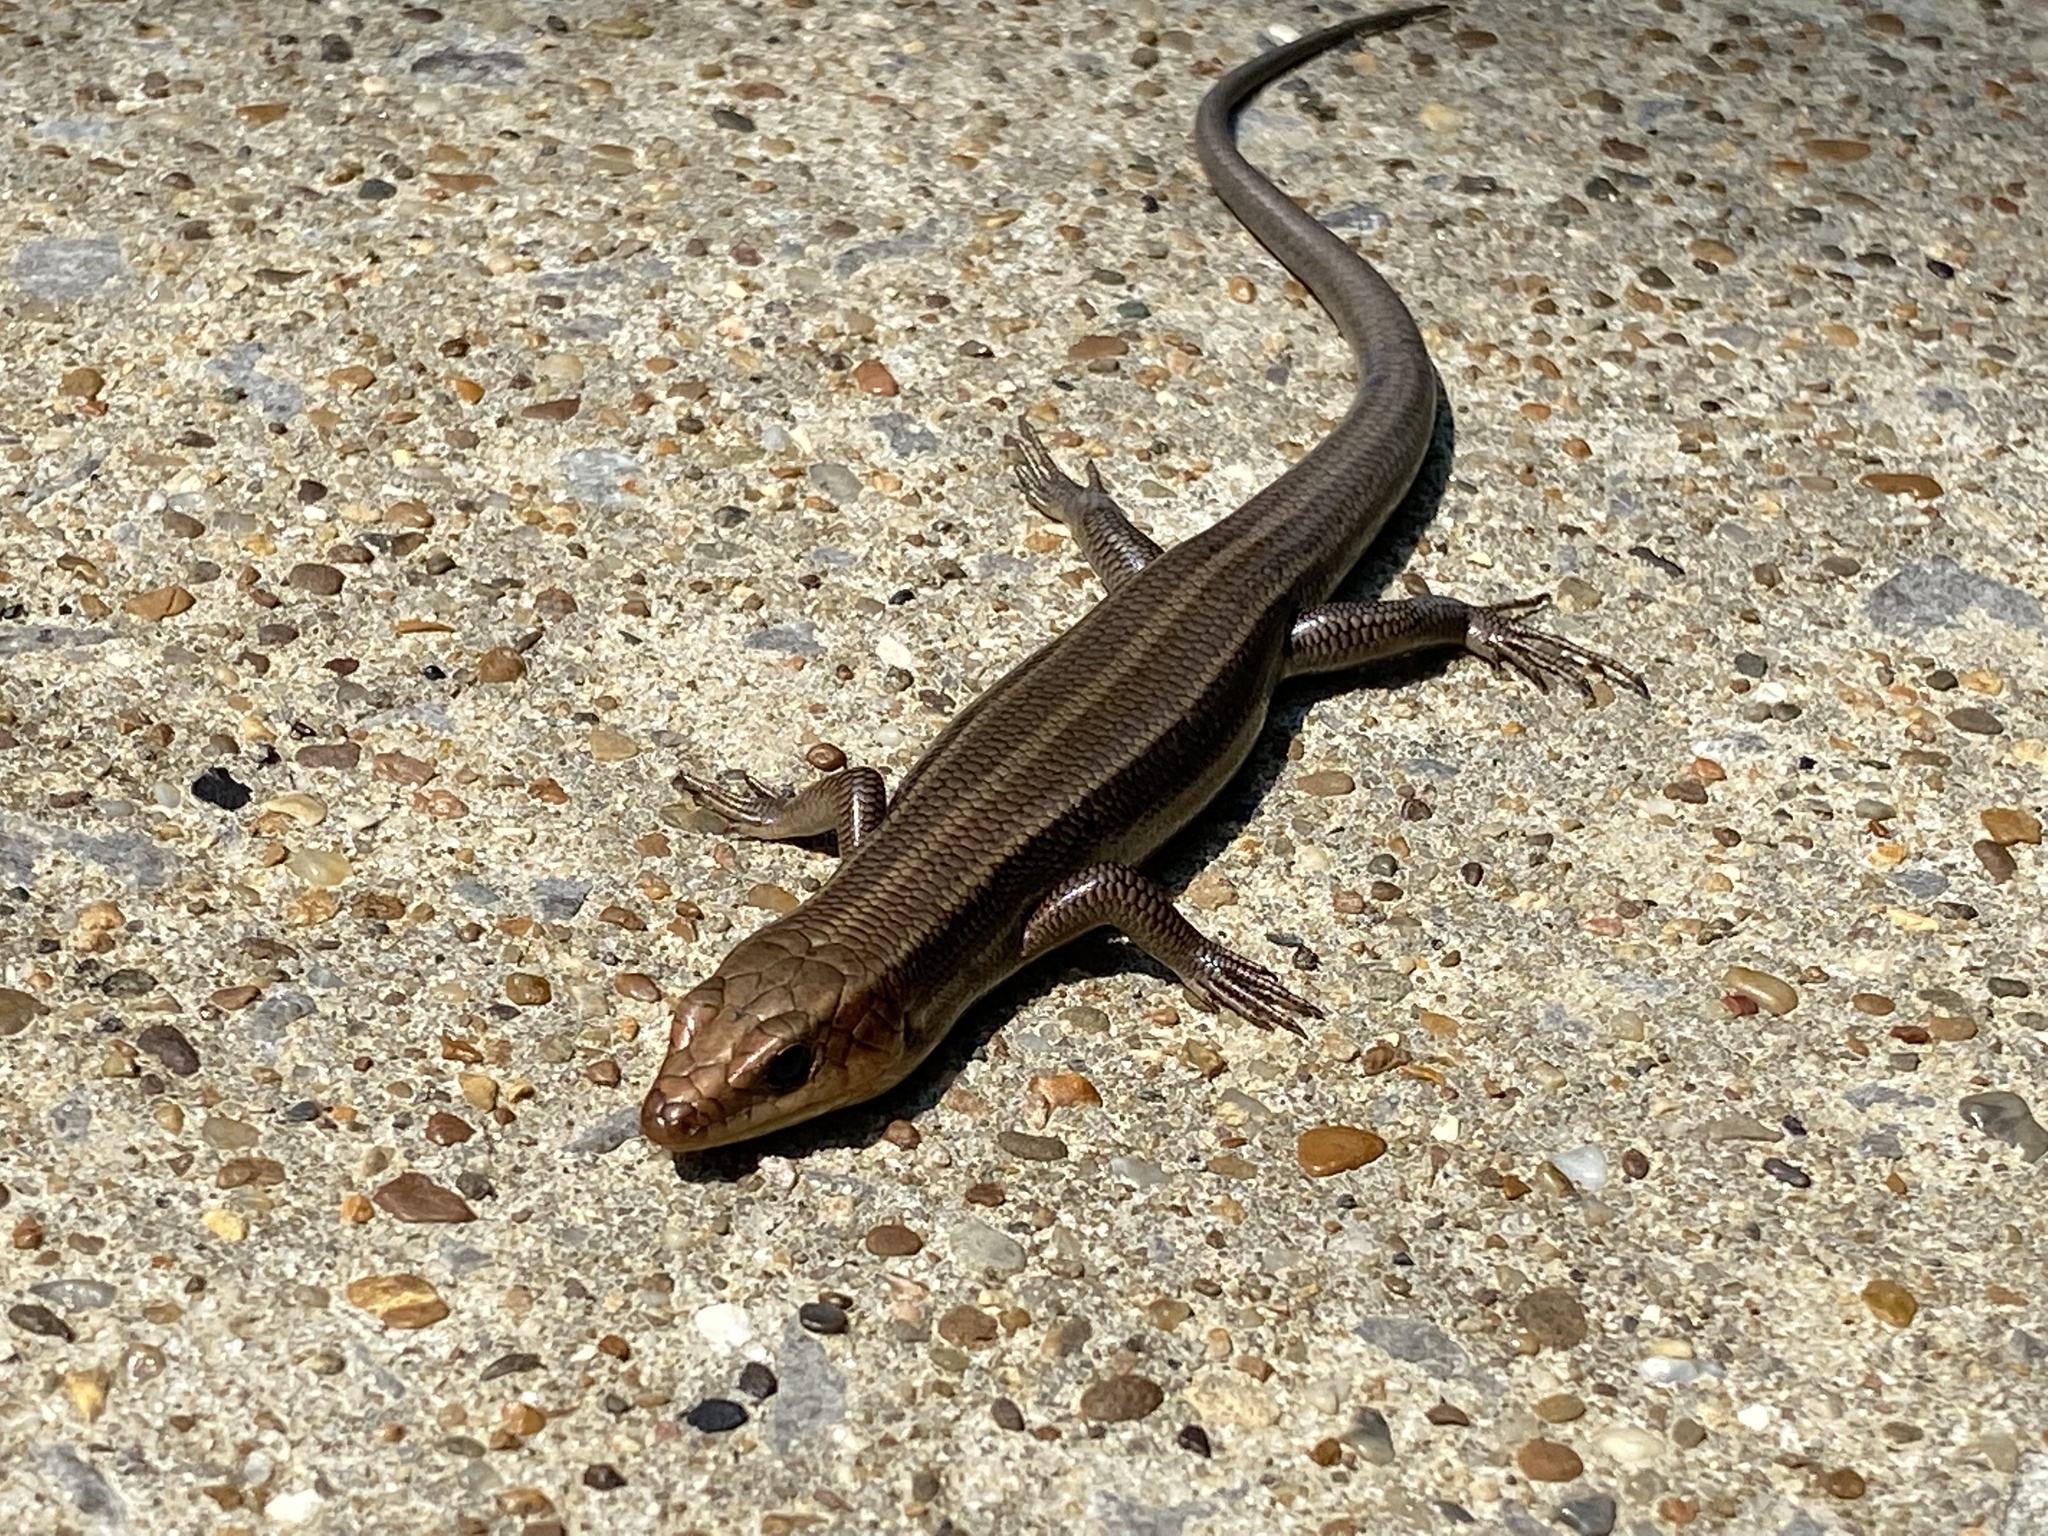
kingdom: Animalia
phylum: Chordata
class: Squamata
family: Scincidae
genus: Plestiodon
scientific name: Plestiodon fasciatus
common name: Five-lined skink
